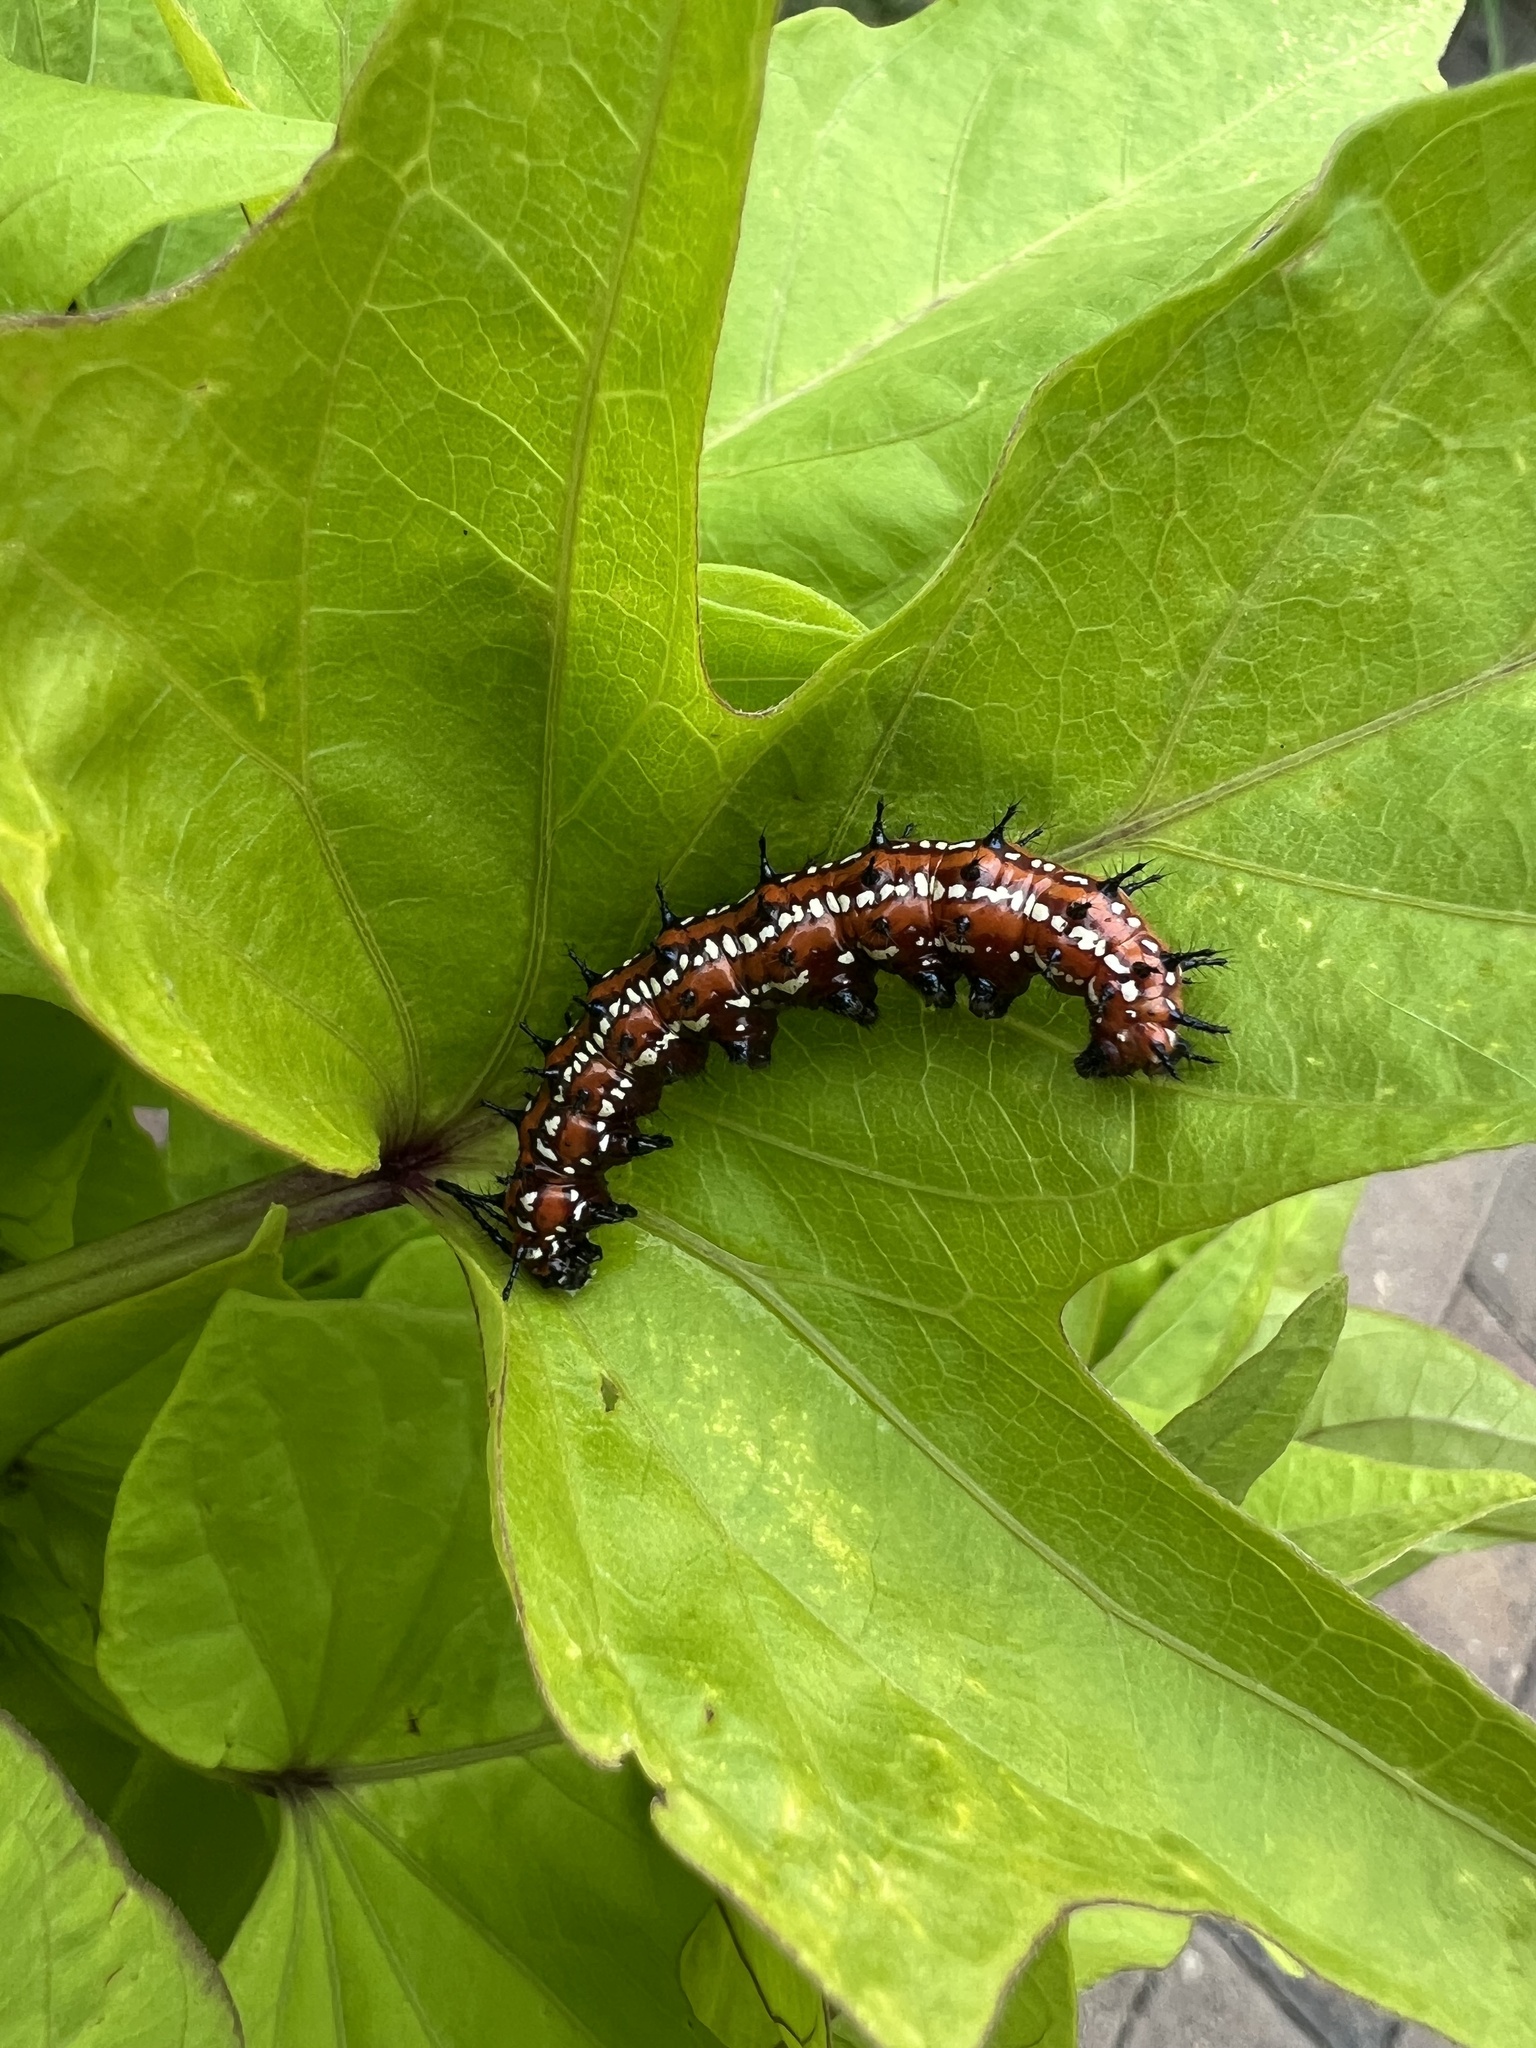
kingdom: Animalia
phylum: Arthropoda
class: Insecta
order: Lepidoptera
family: Nymphalidae
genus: Euptoieta
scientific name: Euptoieta claudia
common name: Variegated fritillary
